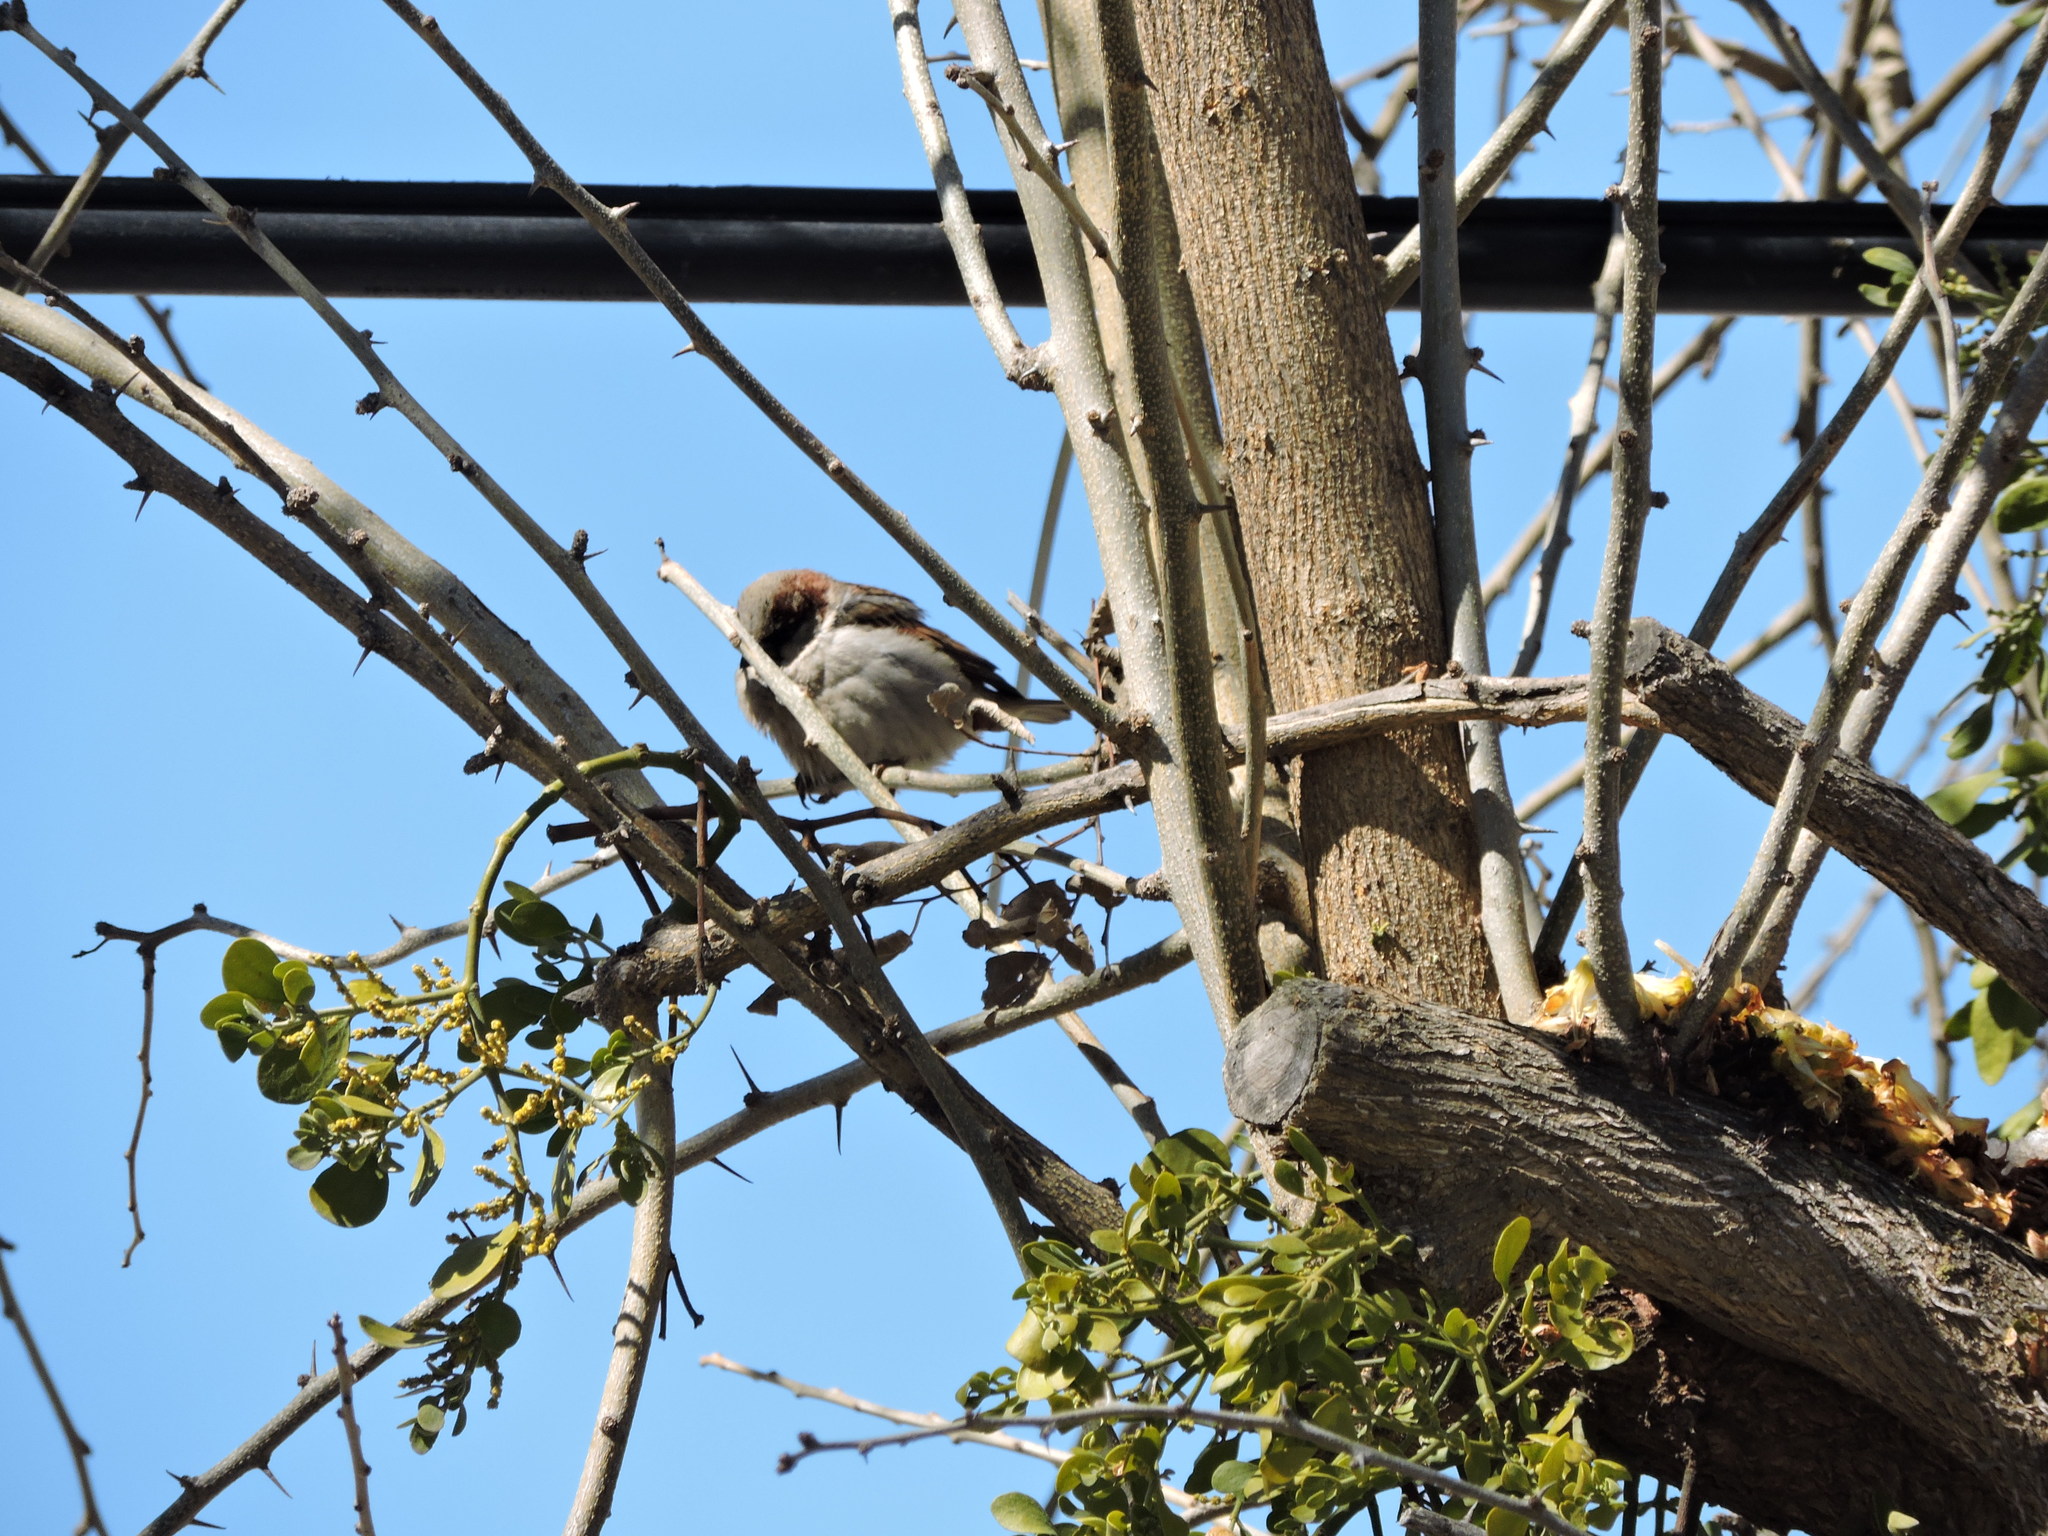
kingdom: Animalia
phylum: Chordata
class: Aves
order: Passeriformes
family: Passeridae
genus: Passer
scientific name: Passer domesticus
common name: House sparrow
